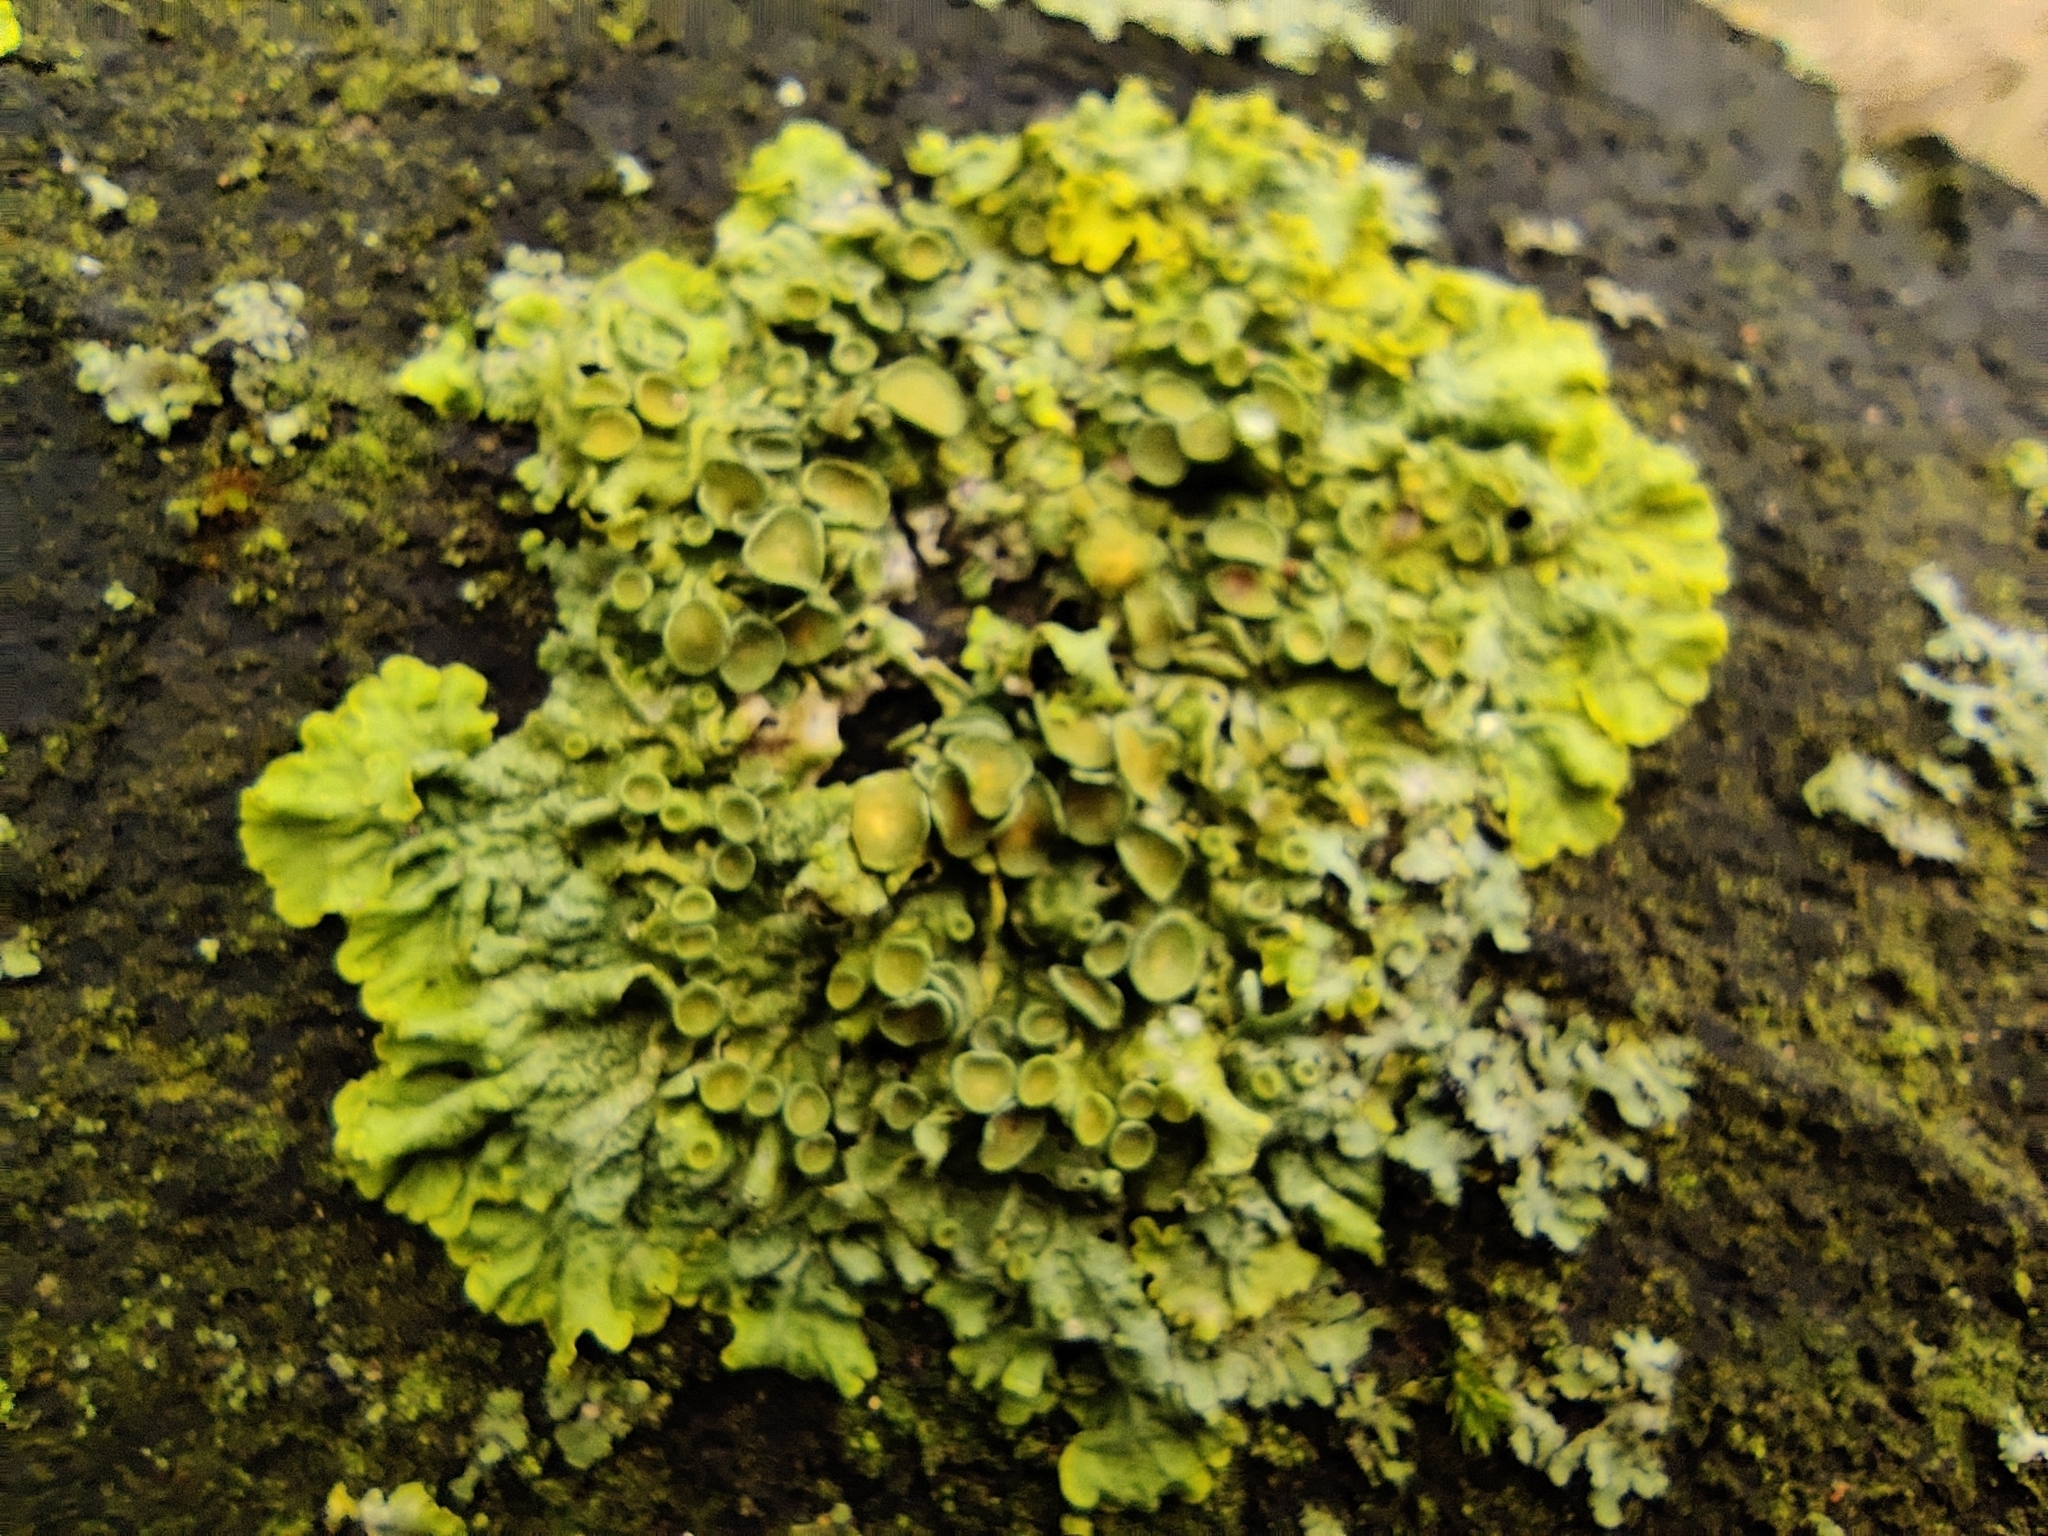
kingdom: Fungi
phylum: Ascomycota
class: Lecanoromycetes
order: Teloschistales
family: Teloschistaceae
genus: Xanthoria
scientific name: Xanthoria parietina
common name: Common orange lichen
